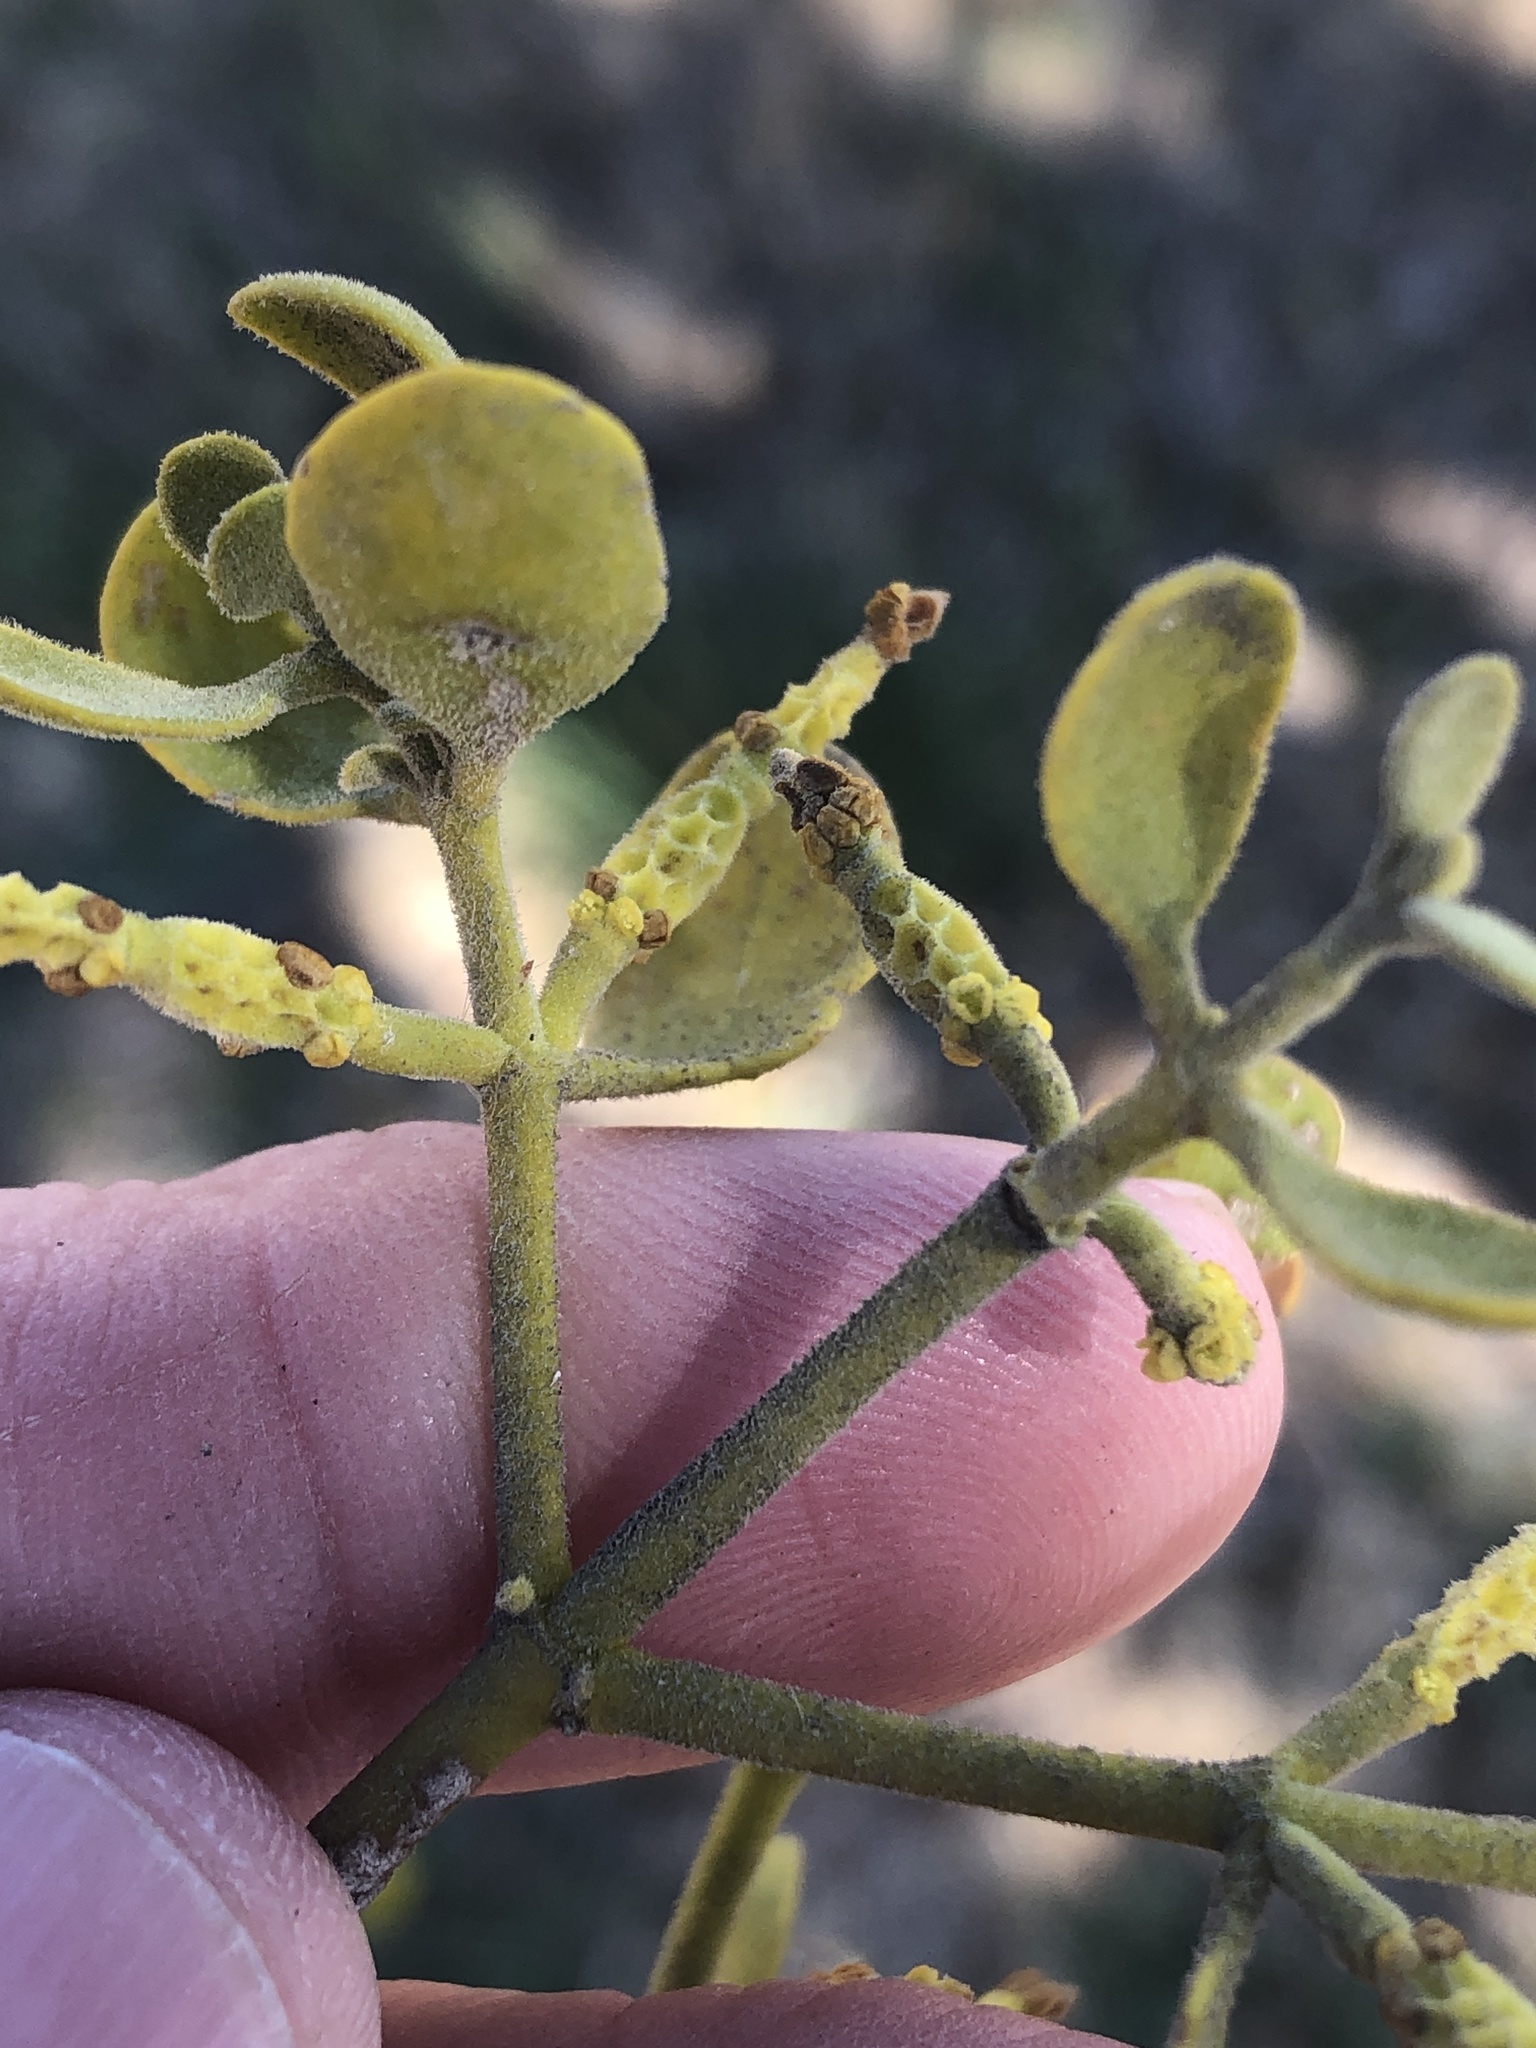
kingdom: Plantae
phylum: Tracheophyta
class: Magnoliopsida
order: Santalales
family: Viscaceae
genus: Phoradendron
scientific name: Phoradendron leucarpum
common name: Pacific mistletoe
